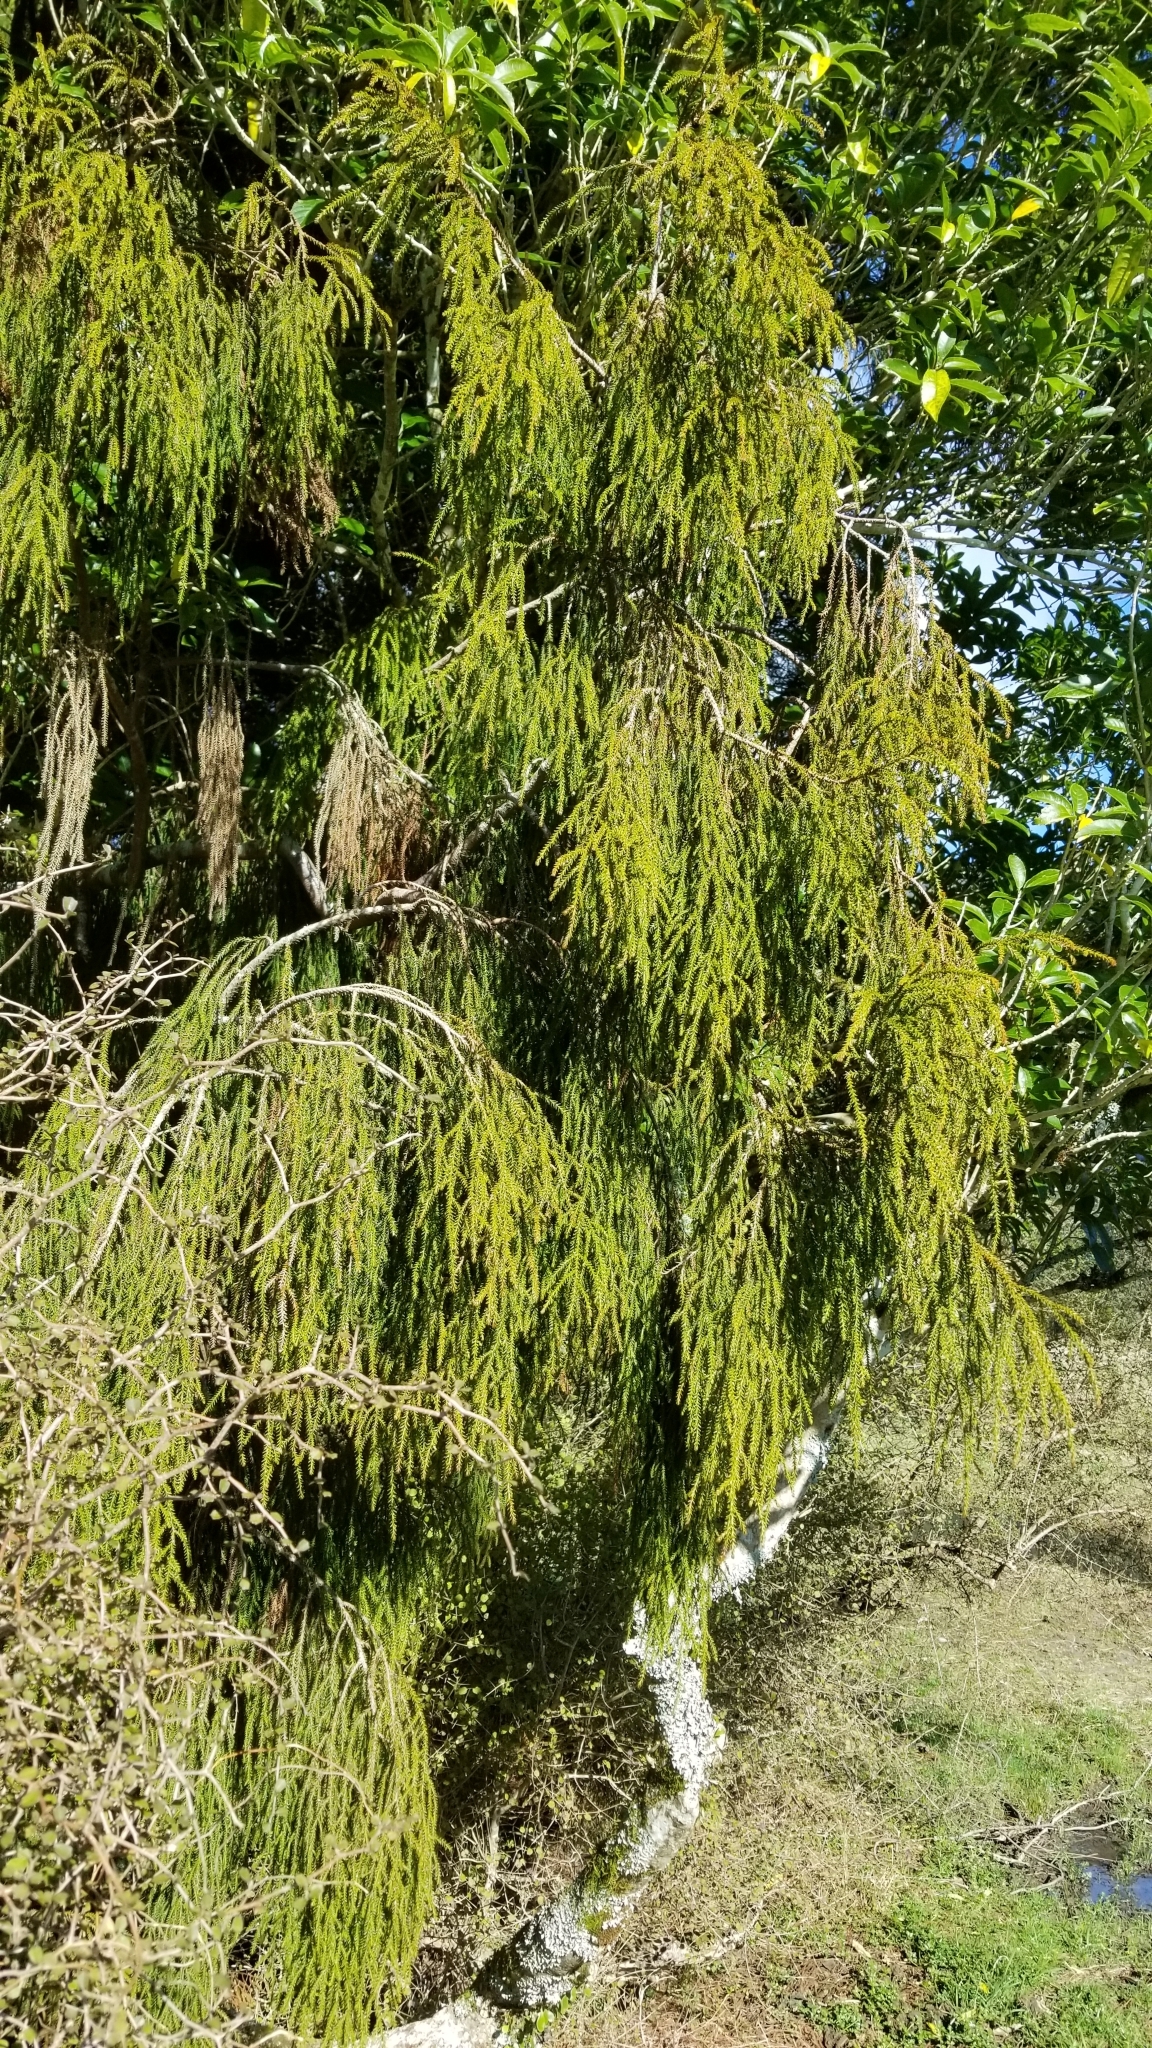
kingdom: Plantae
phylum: Tracheophyta
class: Pinopsida
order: Pinales
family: Podocarpaceae
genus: Dacrydium
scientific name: Dacrydium cupressinum
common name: Red pine
